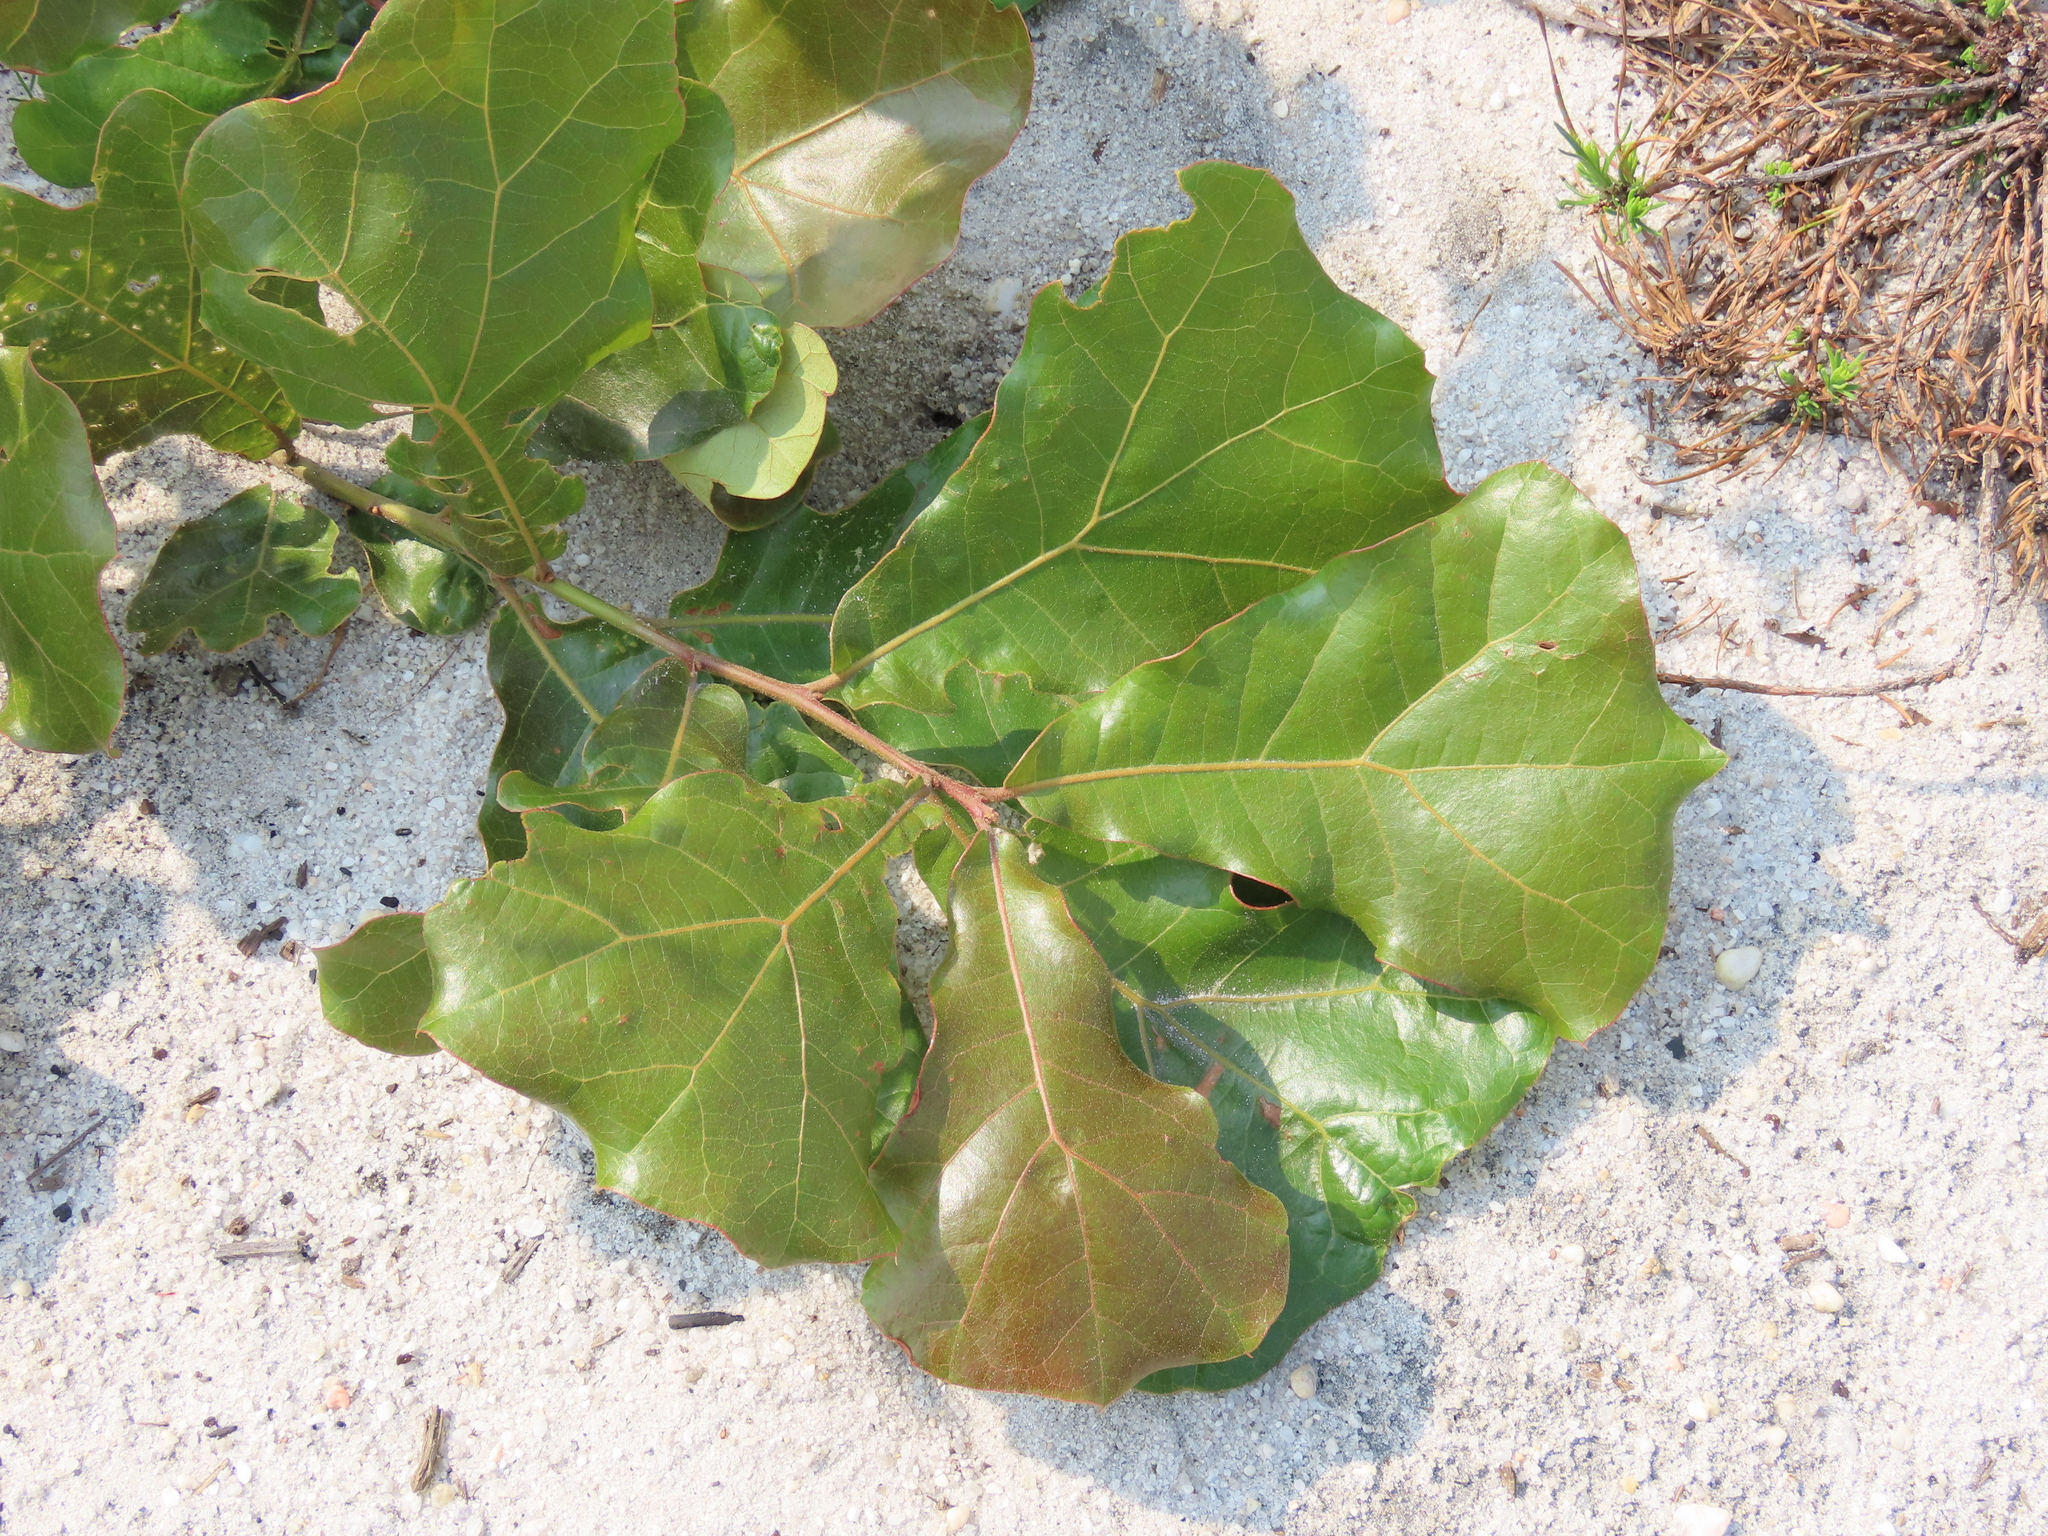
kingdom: Plantae
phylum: Tracheophyta
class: Magnoliopsida
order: Fagales
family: Fagaceae
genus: Quercus
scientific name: Quercus marilandica
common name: Blackjack oak
